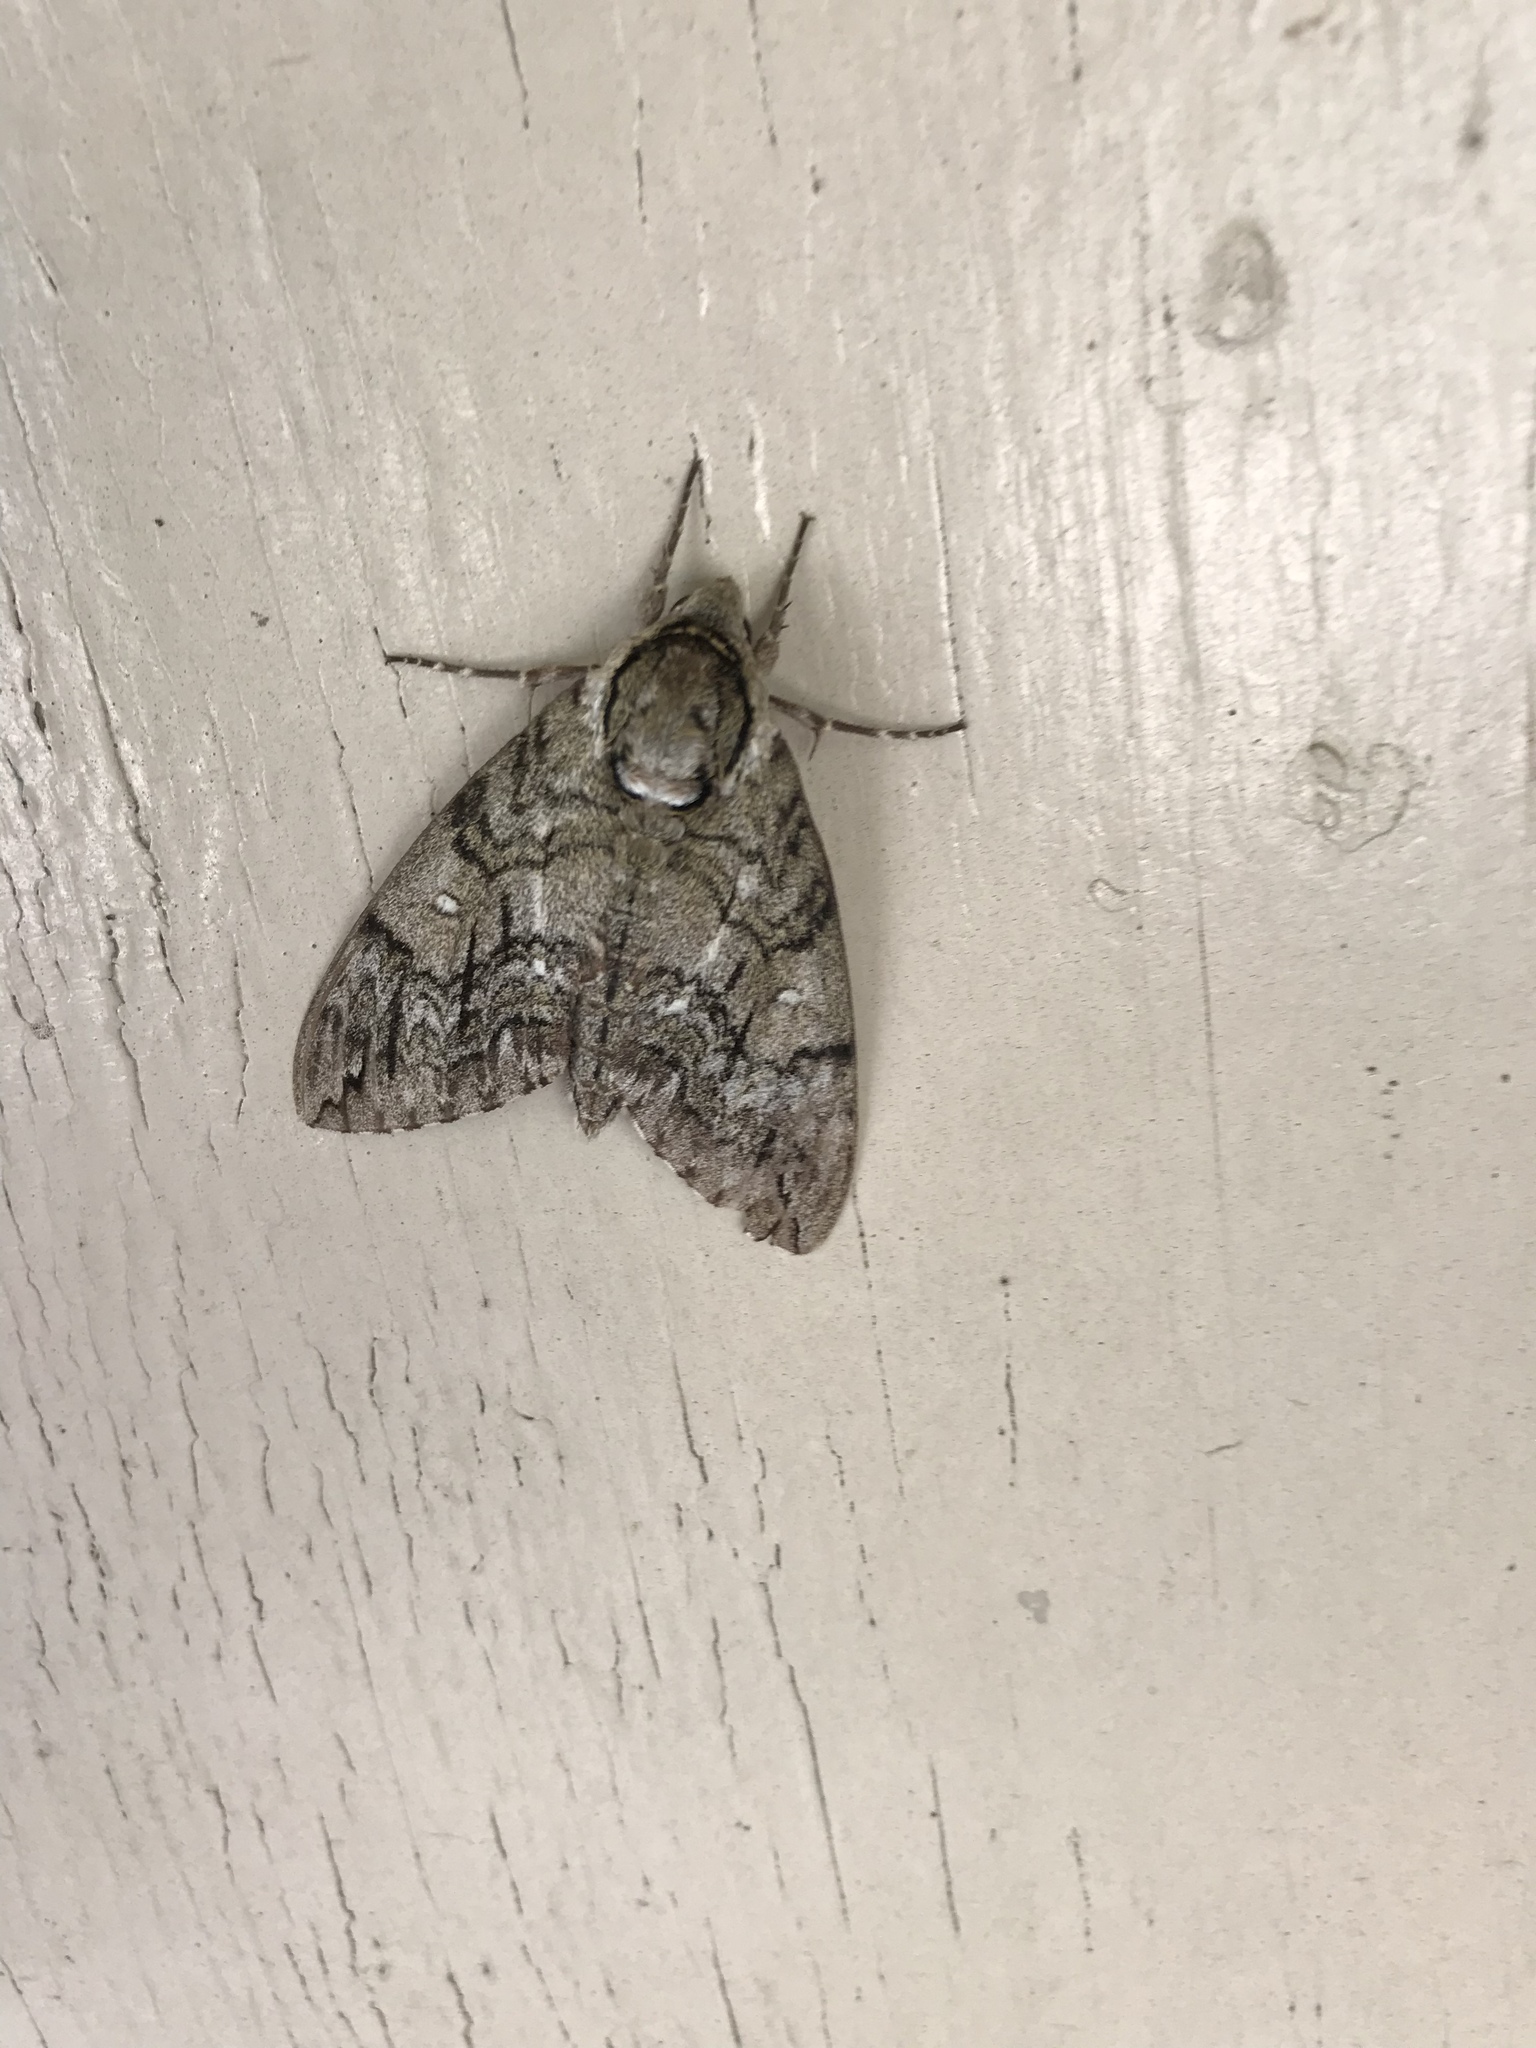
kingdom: Animalia
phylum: Arthropoda
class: Insecta
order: Lepidoptera
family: Sphingidae
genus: Ceratomia
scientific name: Ceratomia undulosa
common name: Waved sphinx
